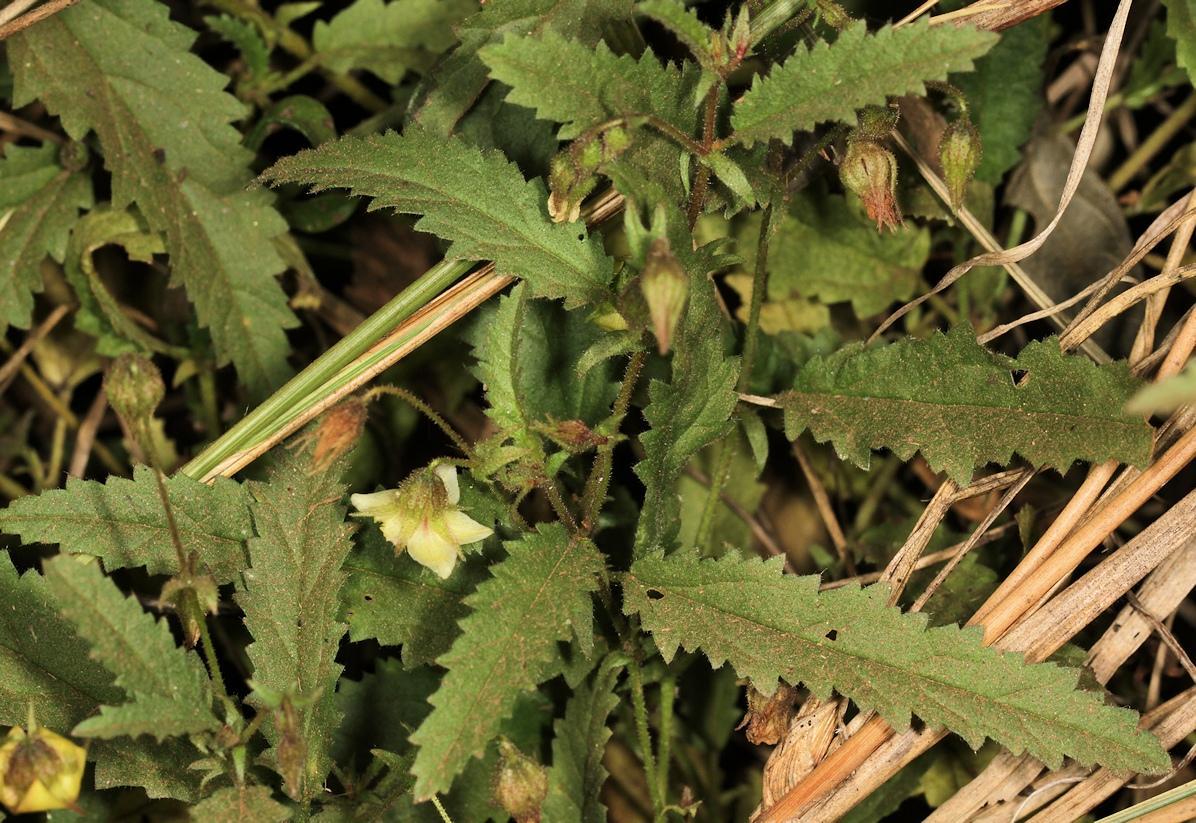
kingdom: Plantae
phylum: Tracheophyta
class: Magnoliopsida
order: Malvales
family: Malvaceae
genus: Hermannia
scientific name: Hermannia coccocarpa
